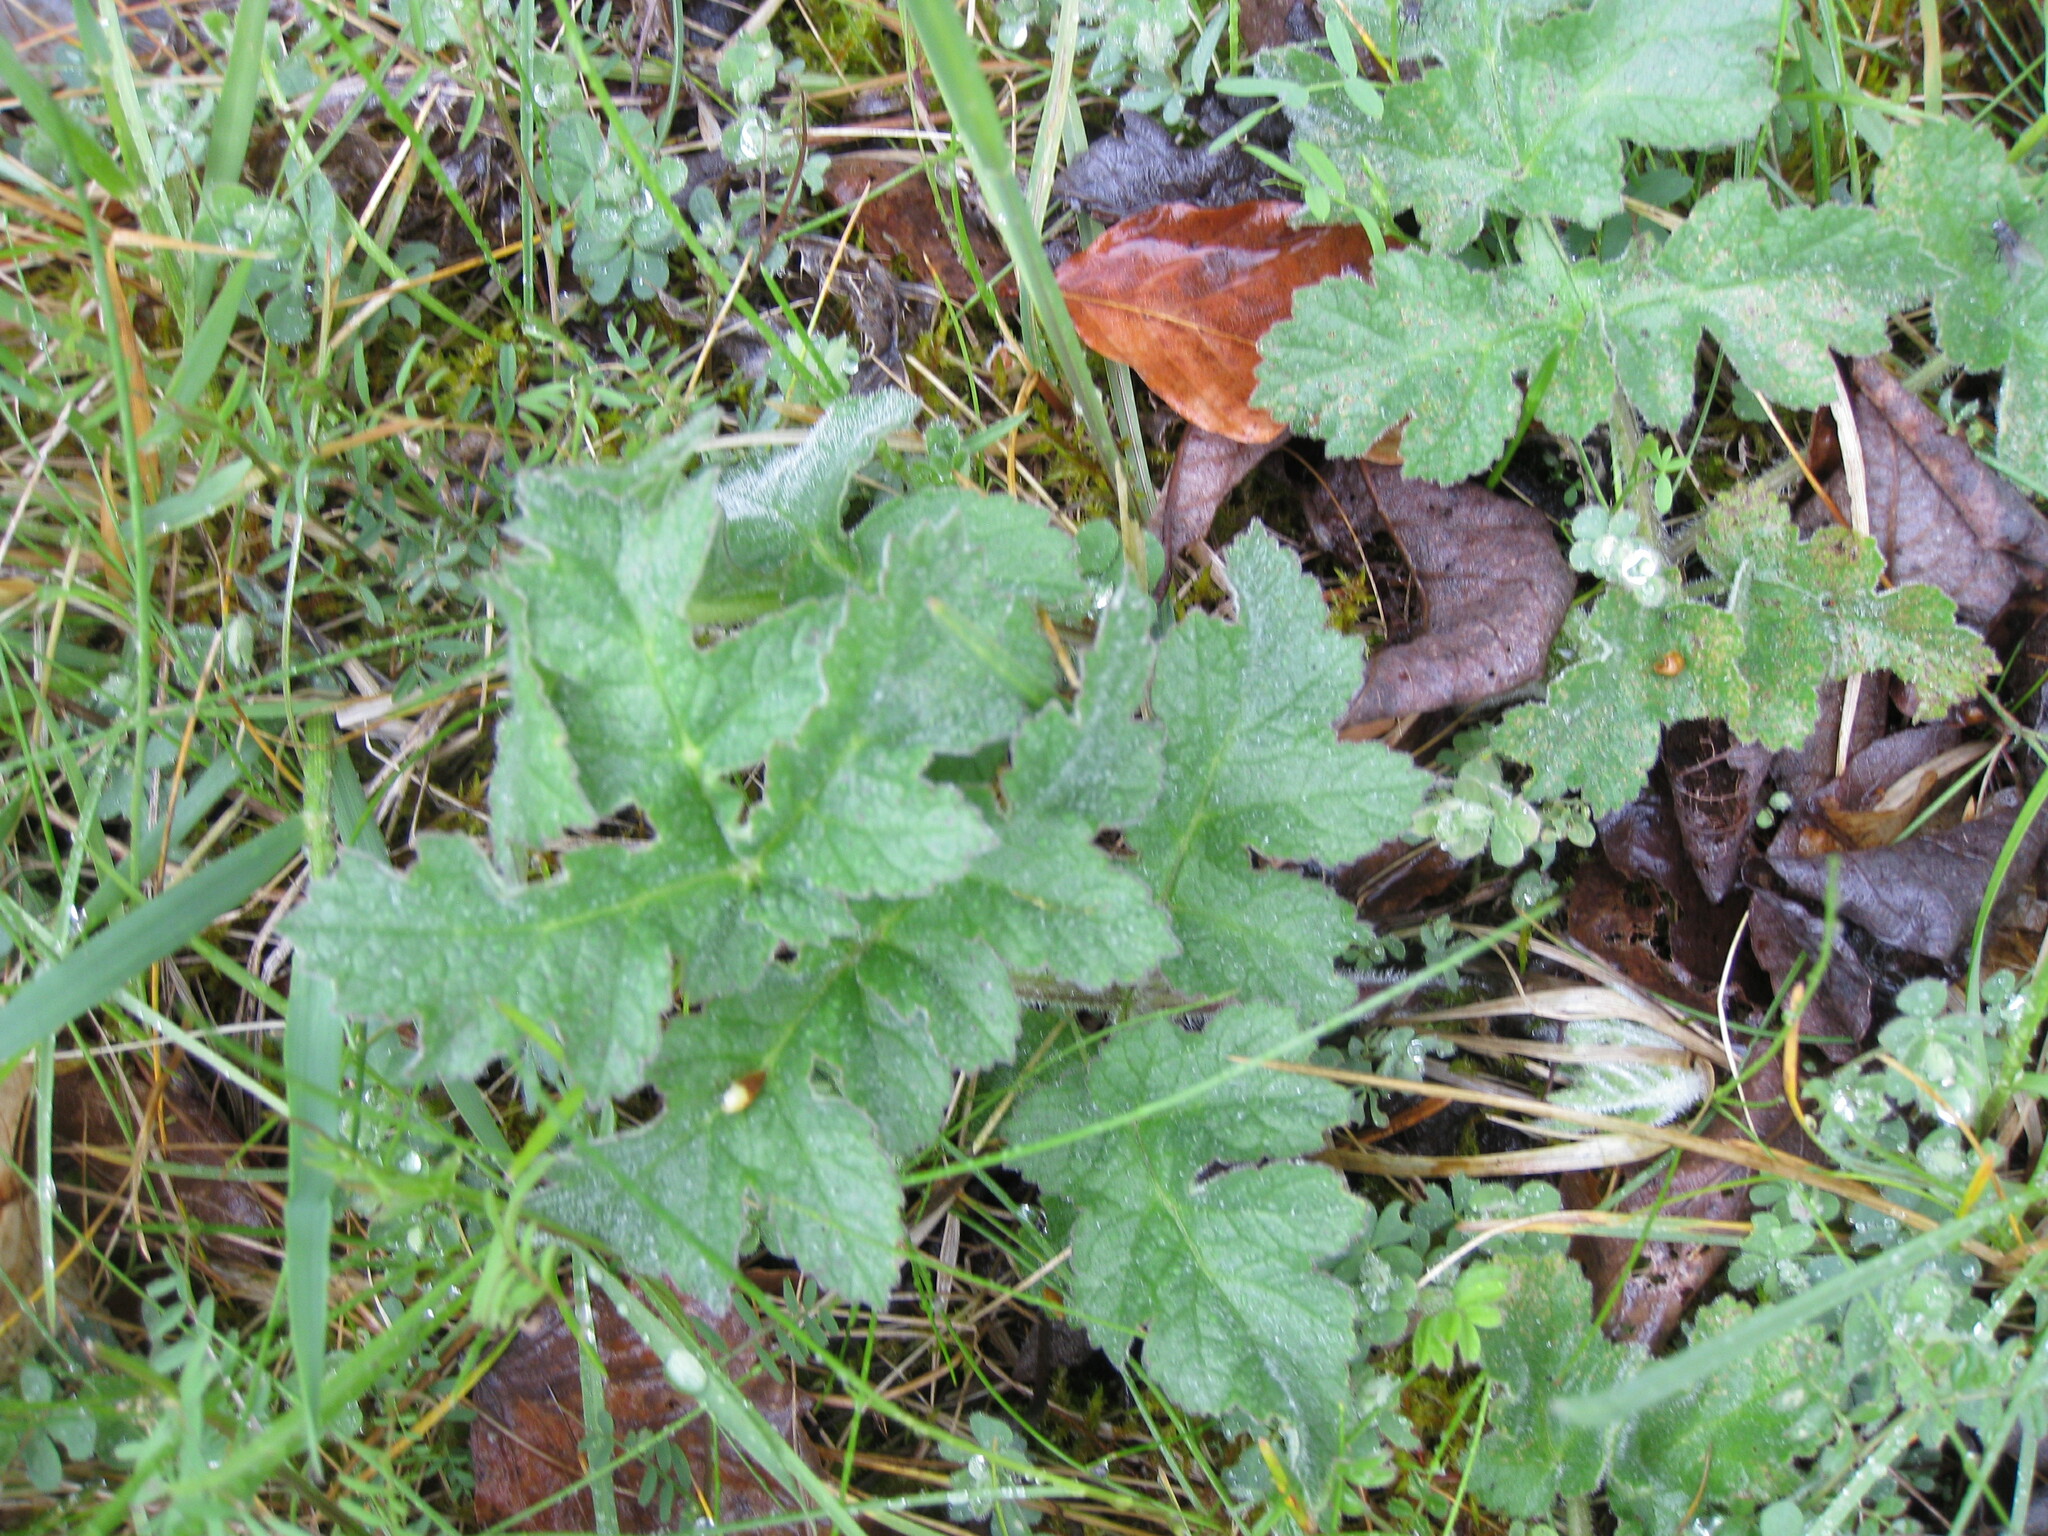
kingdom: Plantae
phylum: Tracheophyta
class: Magnoliopsida
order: Apiales
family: Apiaceae
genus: Heracleum
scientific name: Heracleum sphondylium
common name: Hogweed
